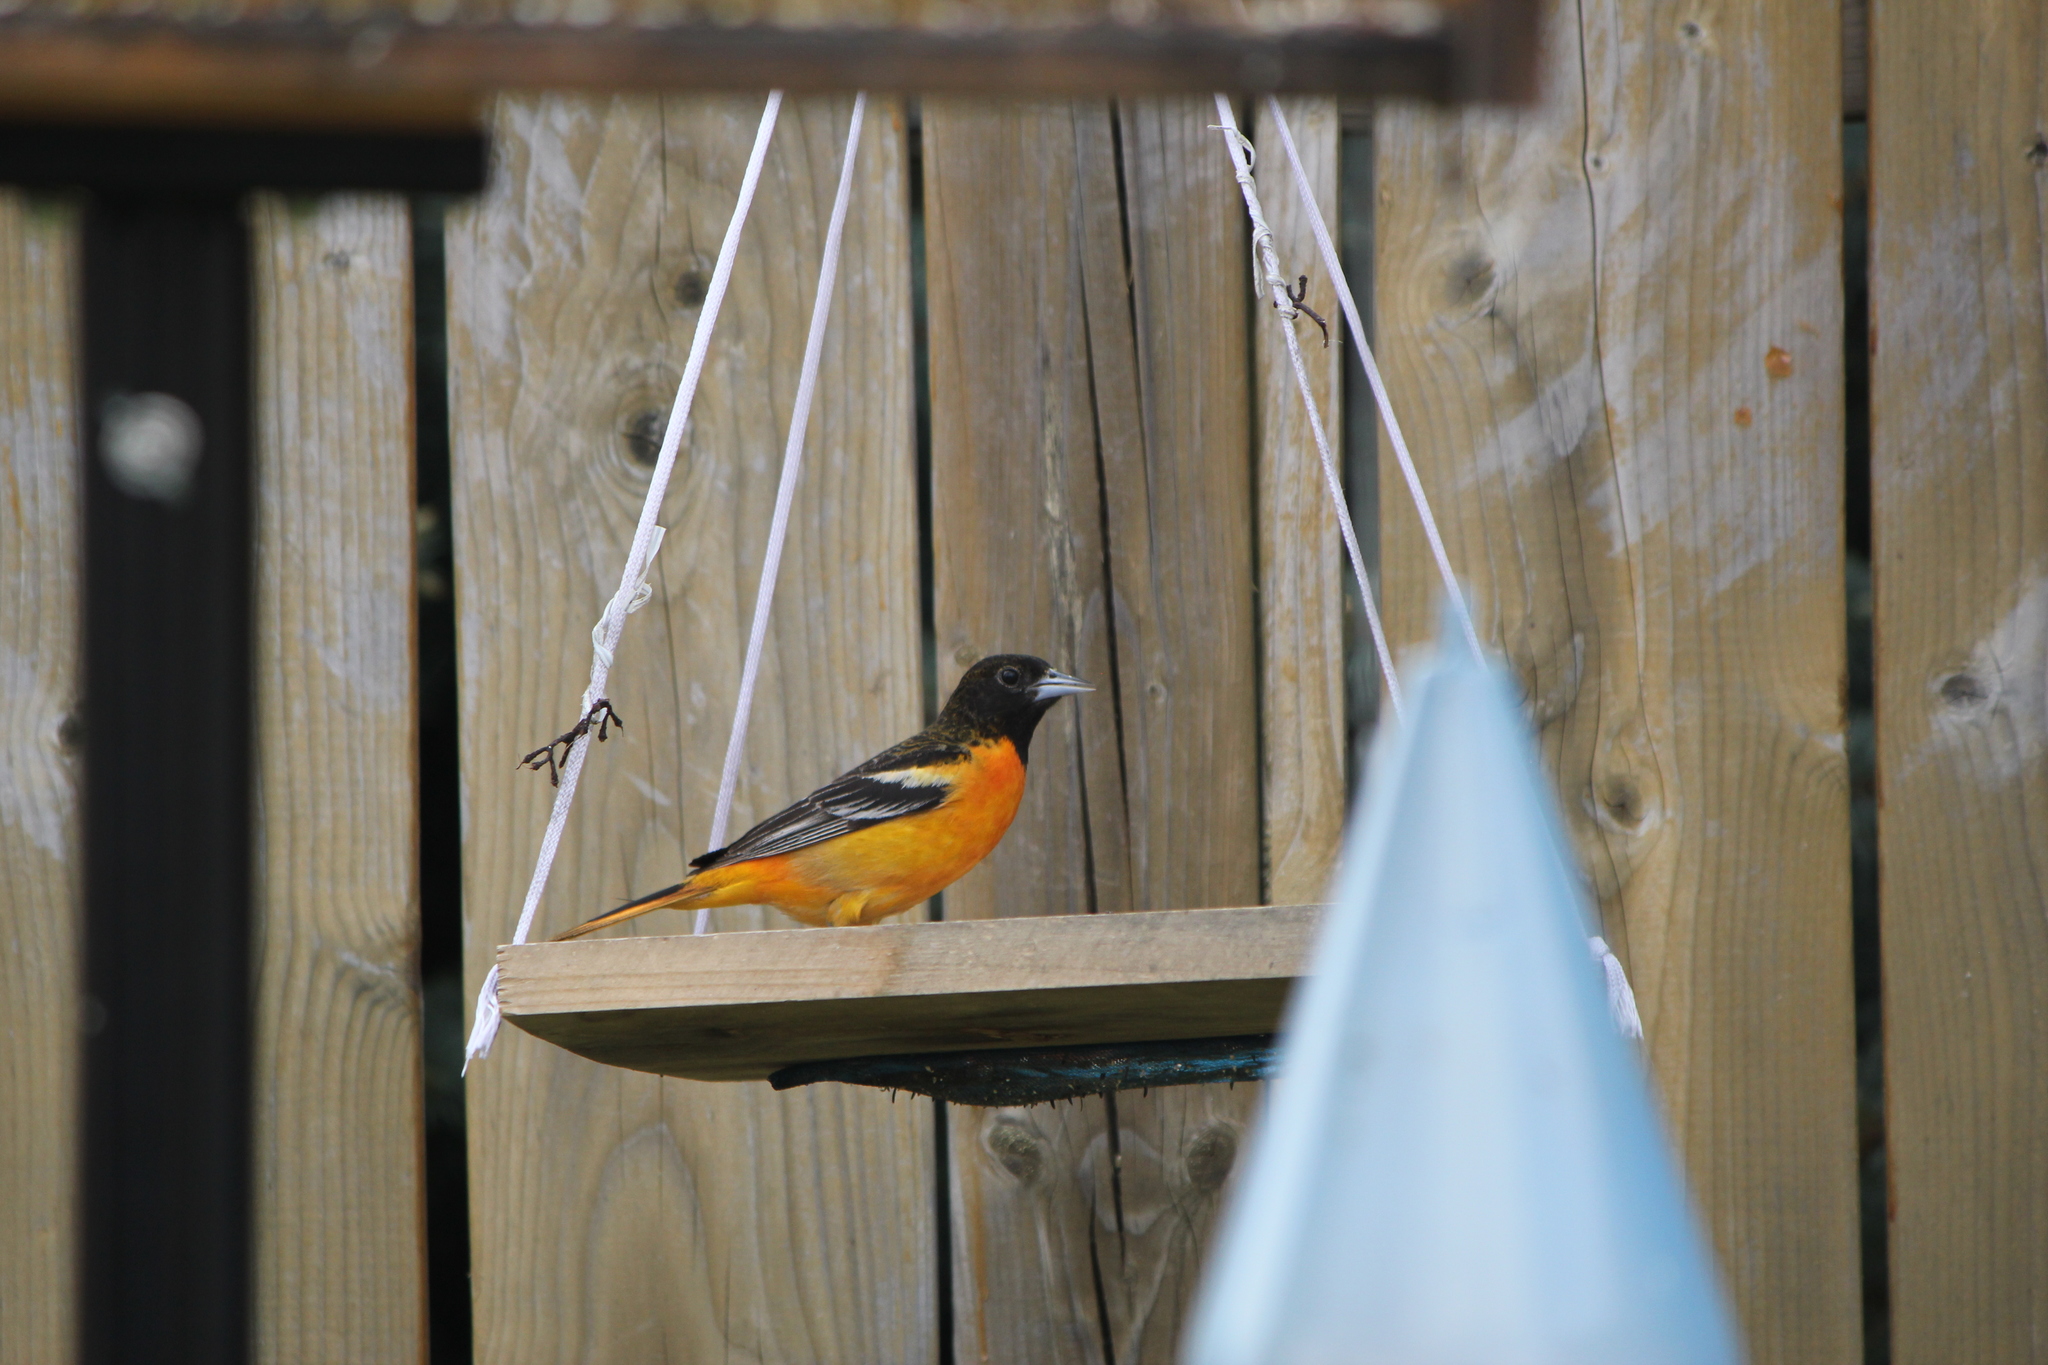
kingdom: Animalia
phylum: Chordata
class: Aves
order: Passeriformes
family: Icteridae
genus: Icterus
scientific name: Icterus galbula
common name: Baltimore oriole
